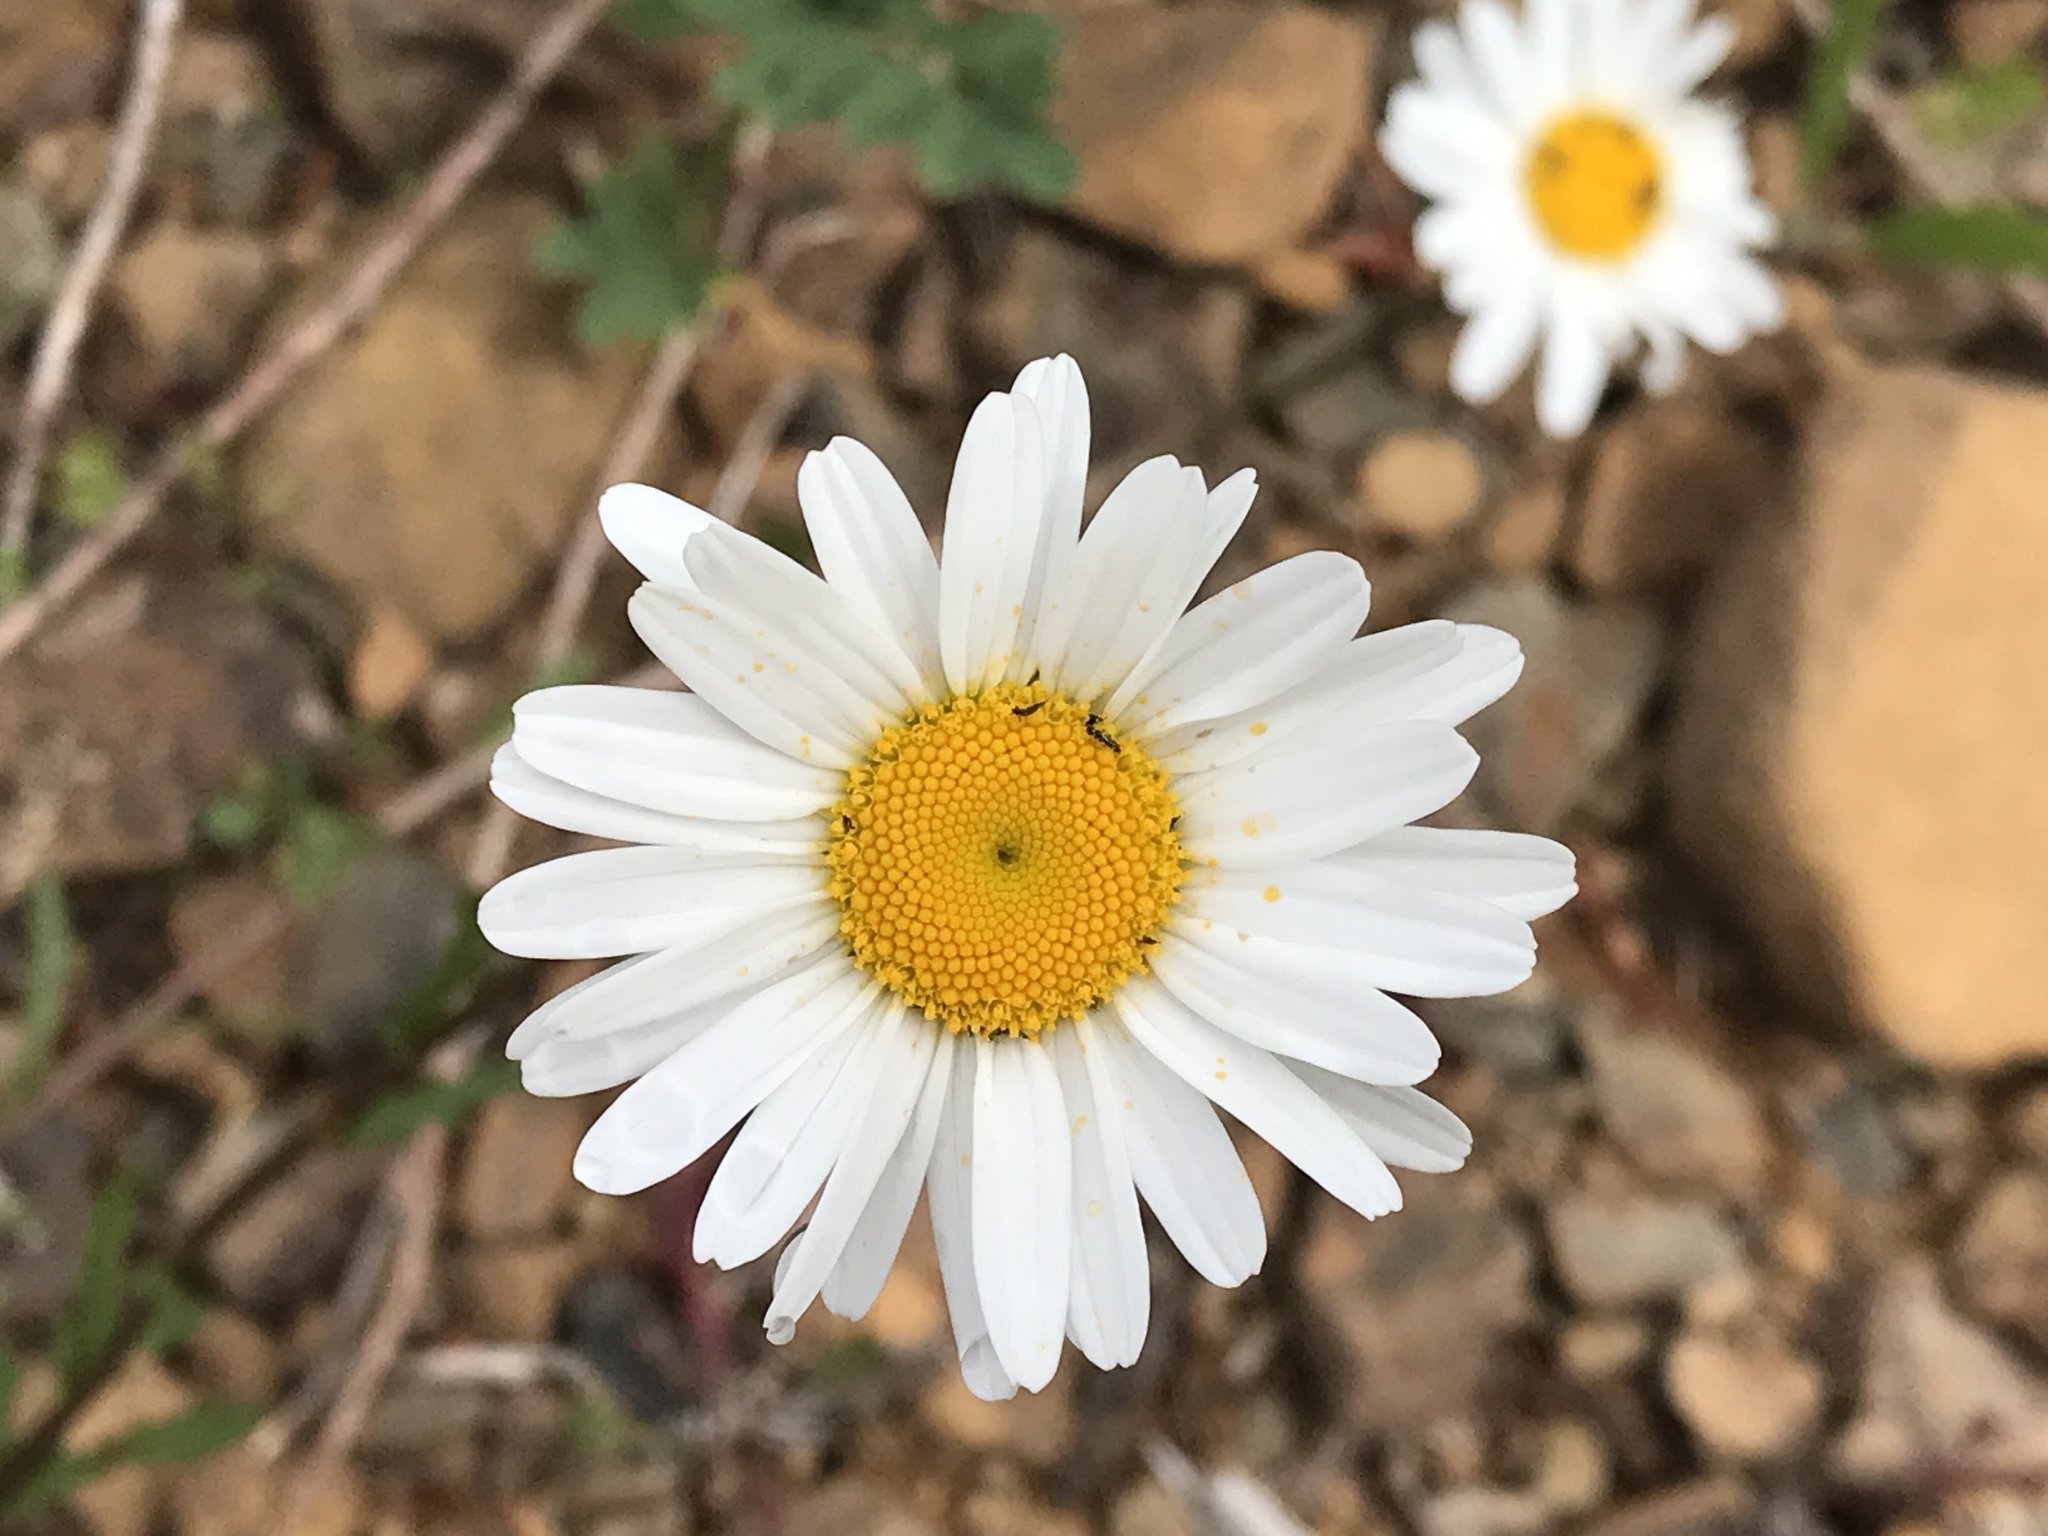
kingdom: Plantae
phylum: Tracheophyta
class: Magnoliopsida
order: Asterales
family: Asteraceae
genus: Leucanthemum
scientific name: Leucanthemum vulgare
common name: Oxeye daisy
